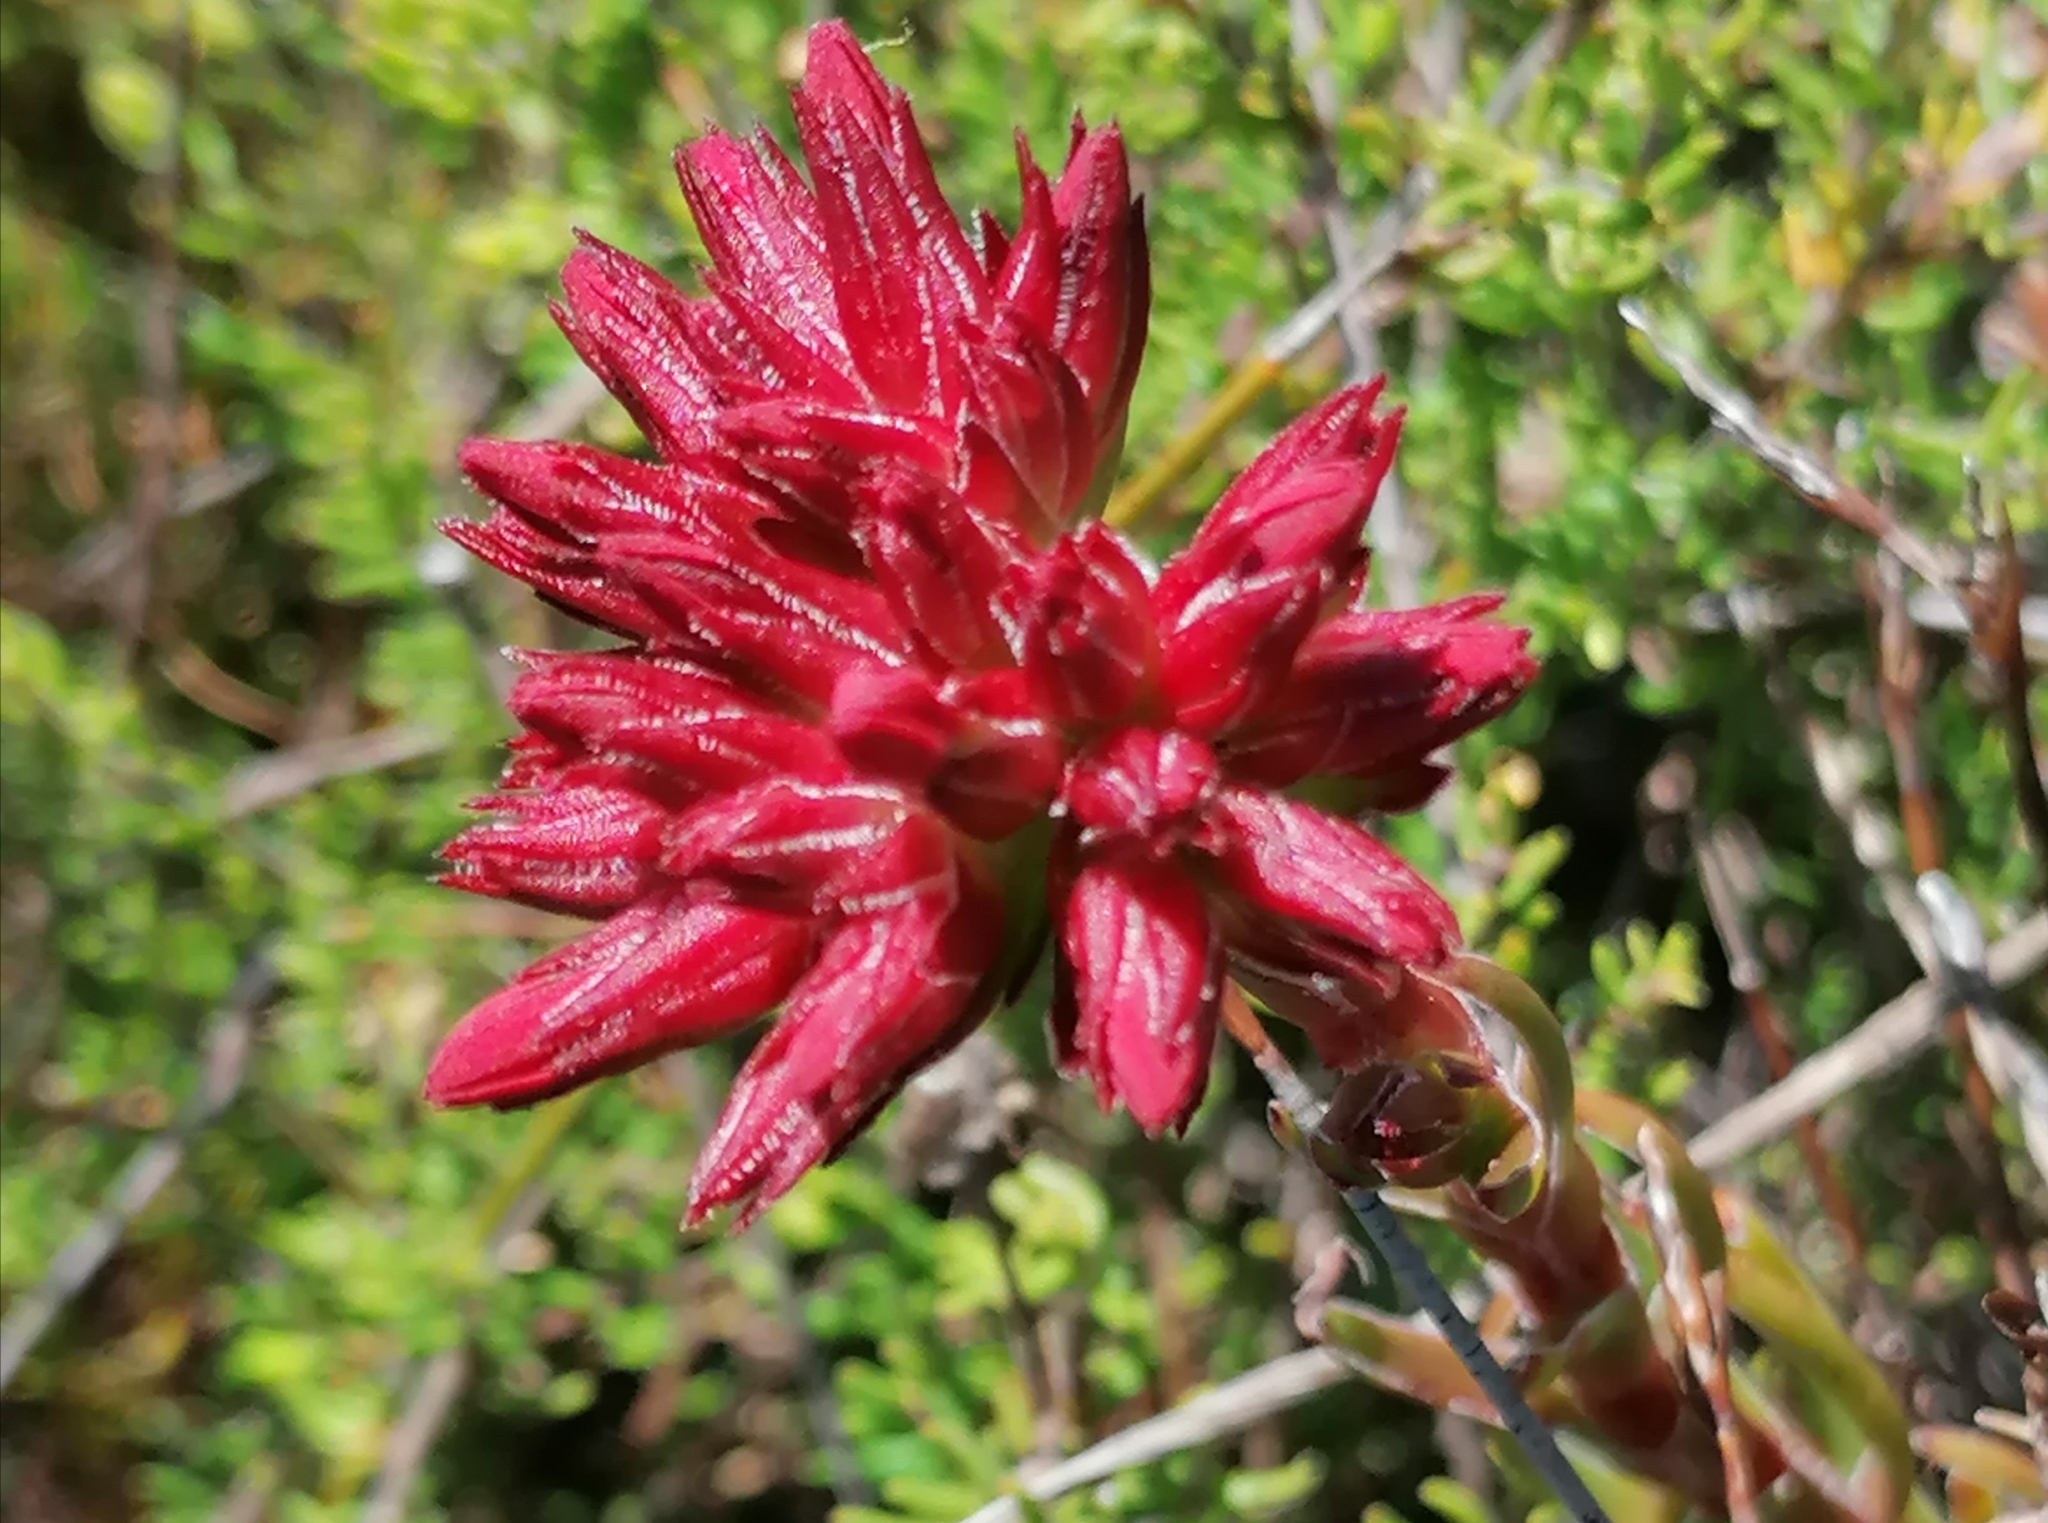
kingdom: Plantae
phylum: Tracheophyta
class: Magnoliopsida
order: Saxifragales
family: Crassulaceae
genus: Crassula
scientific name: Crassula fascicularis
